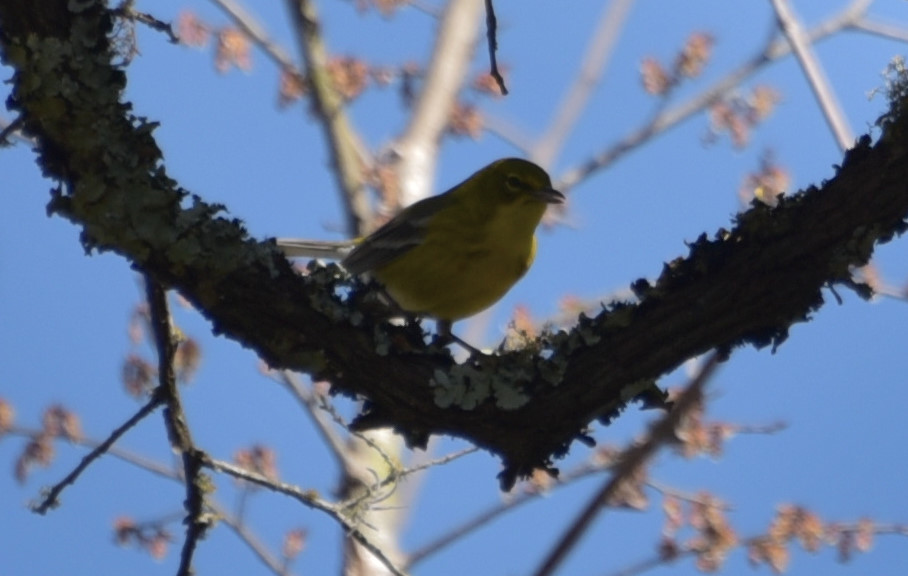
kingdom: Animalia
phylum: Chordata
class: Aves
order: Passeriformes
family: Parulidae
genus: Setophaga
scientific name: Setophaga pinus
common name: Pine warbler
